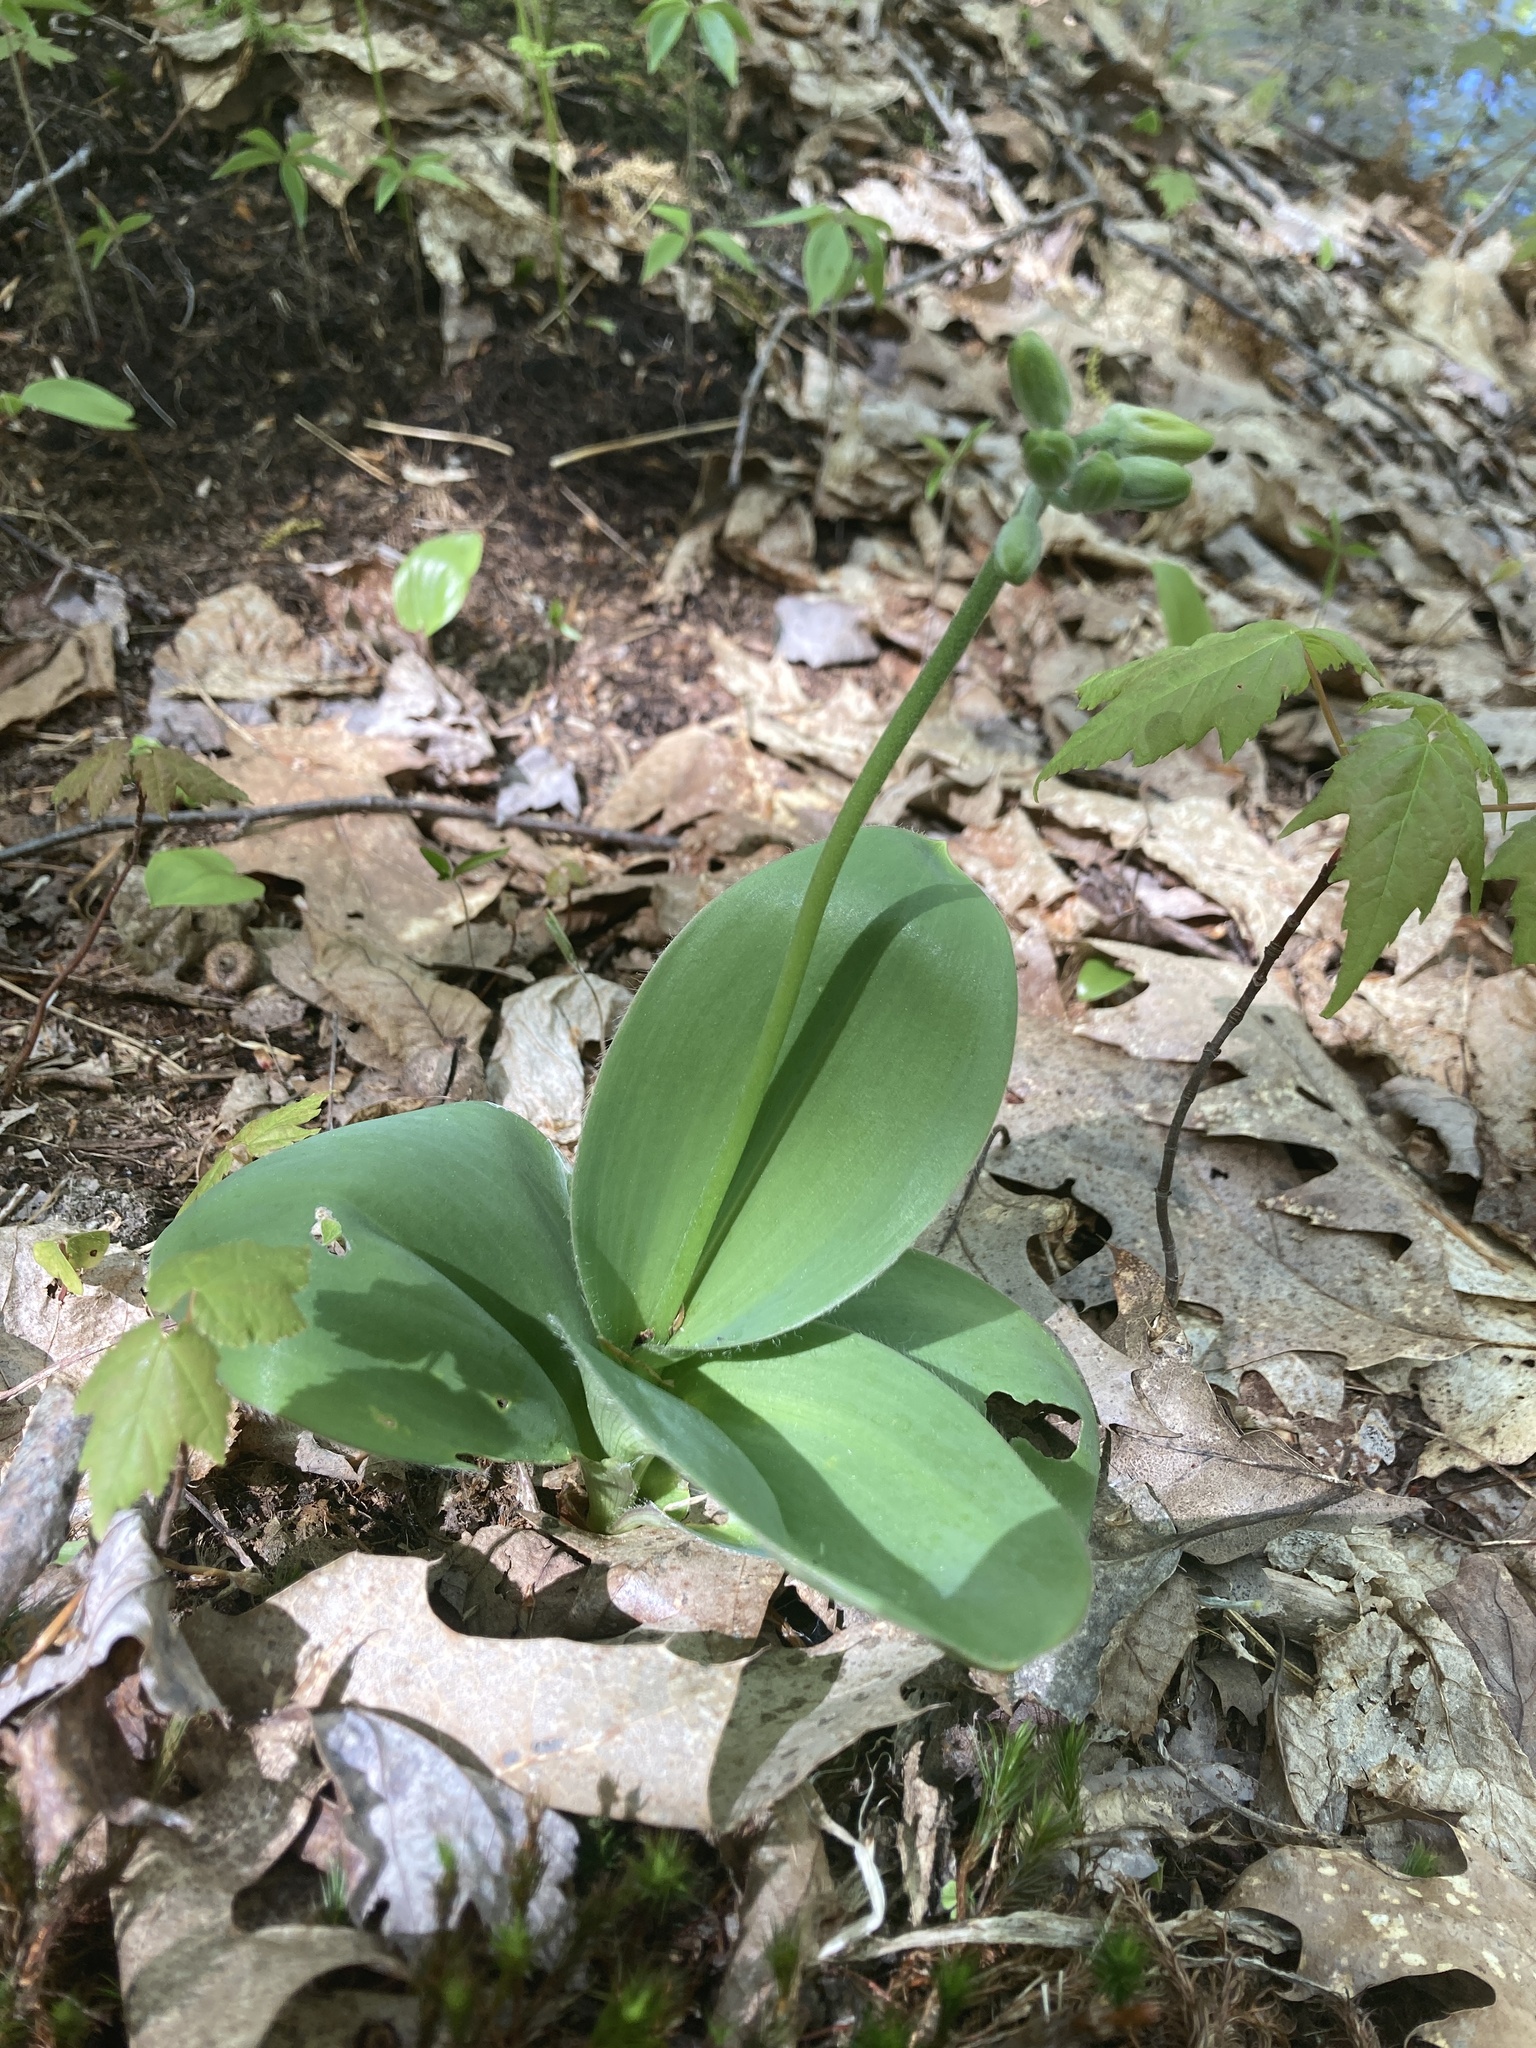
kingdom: Plantae
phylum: Tracheophyta
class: Liliopsida
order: Liliales
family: Liliaceae
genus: Clintonia
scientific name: Clintonia borealis
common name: Yellow clintonia
